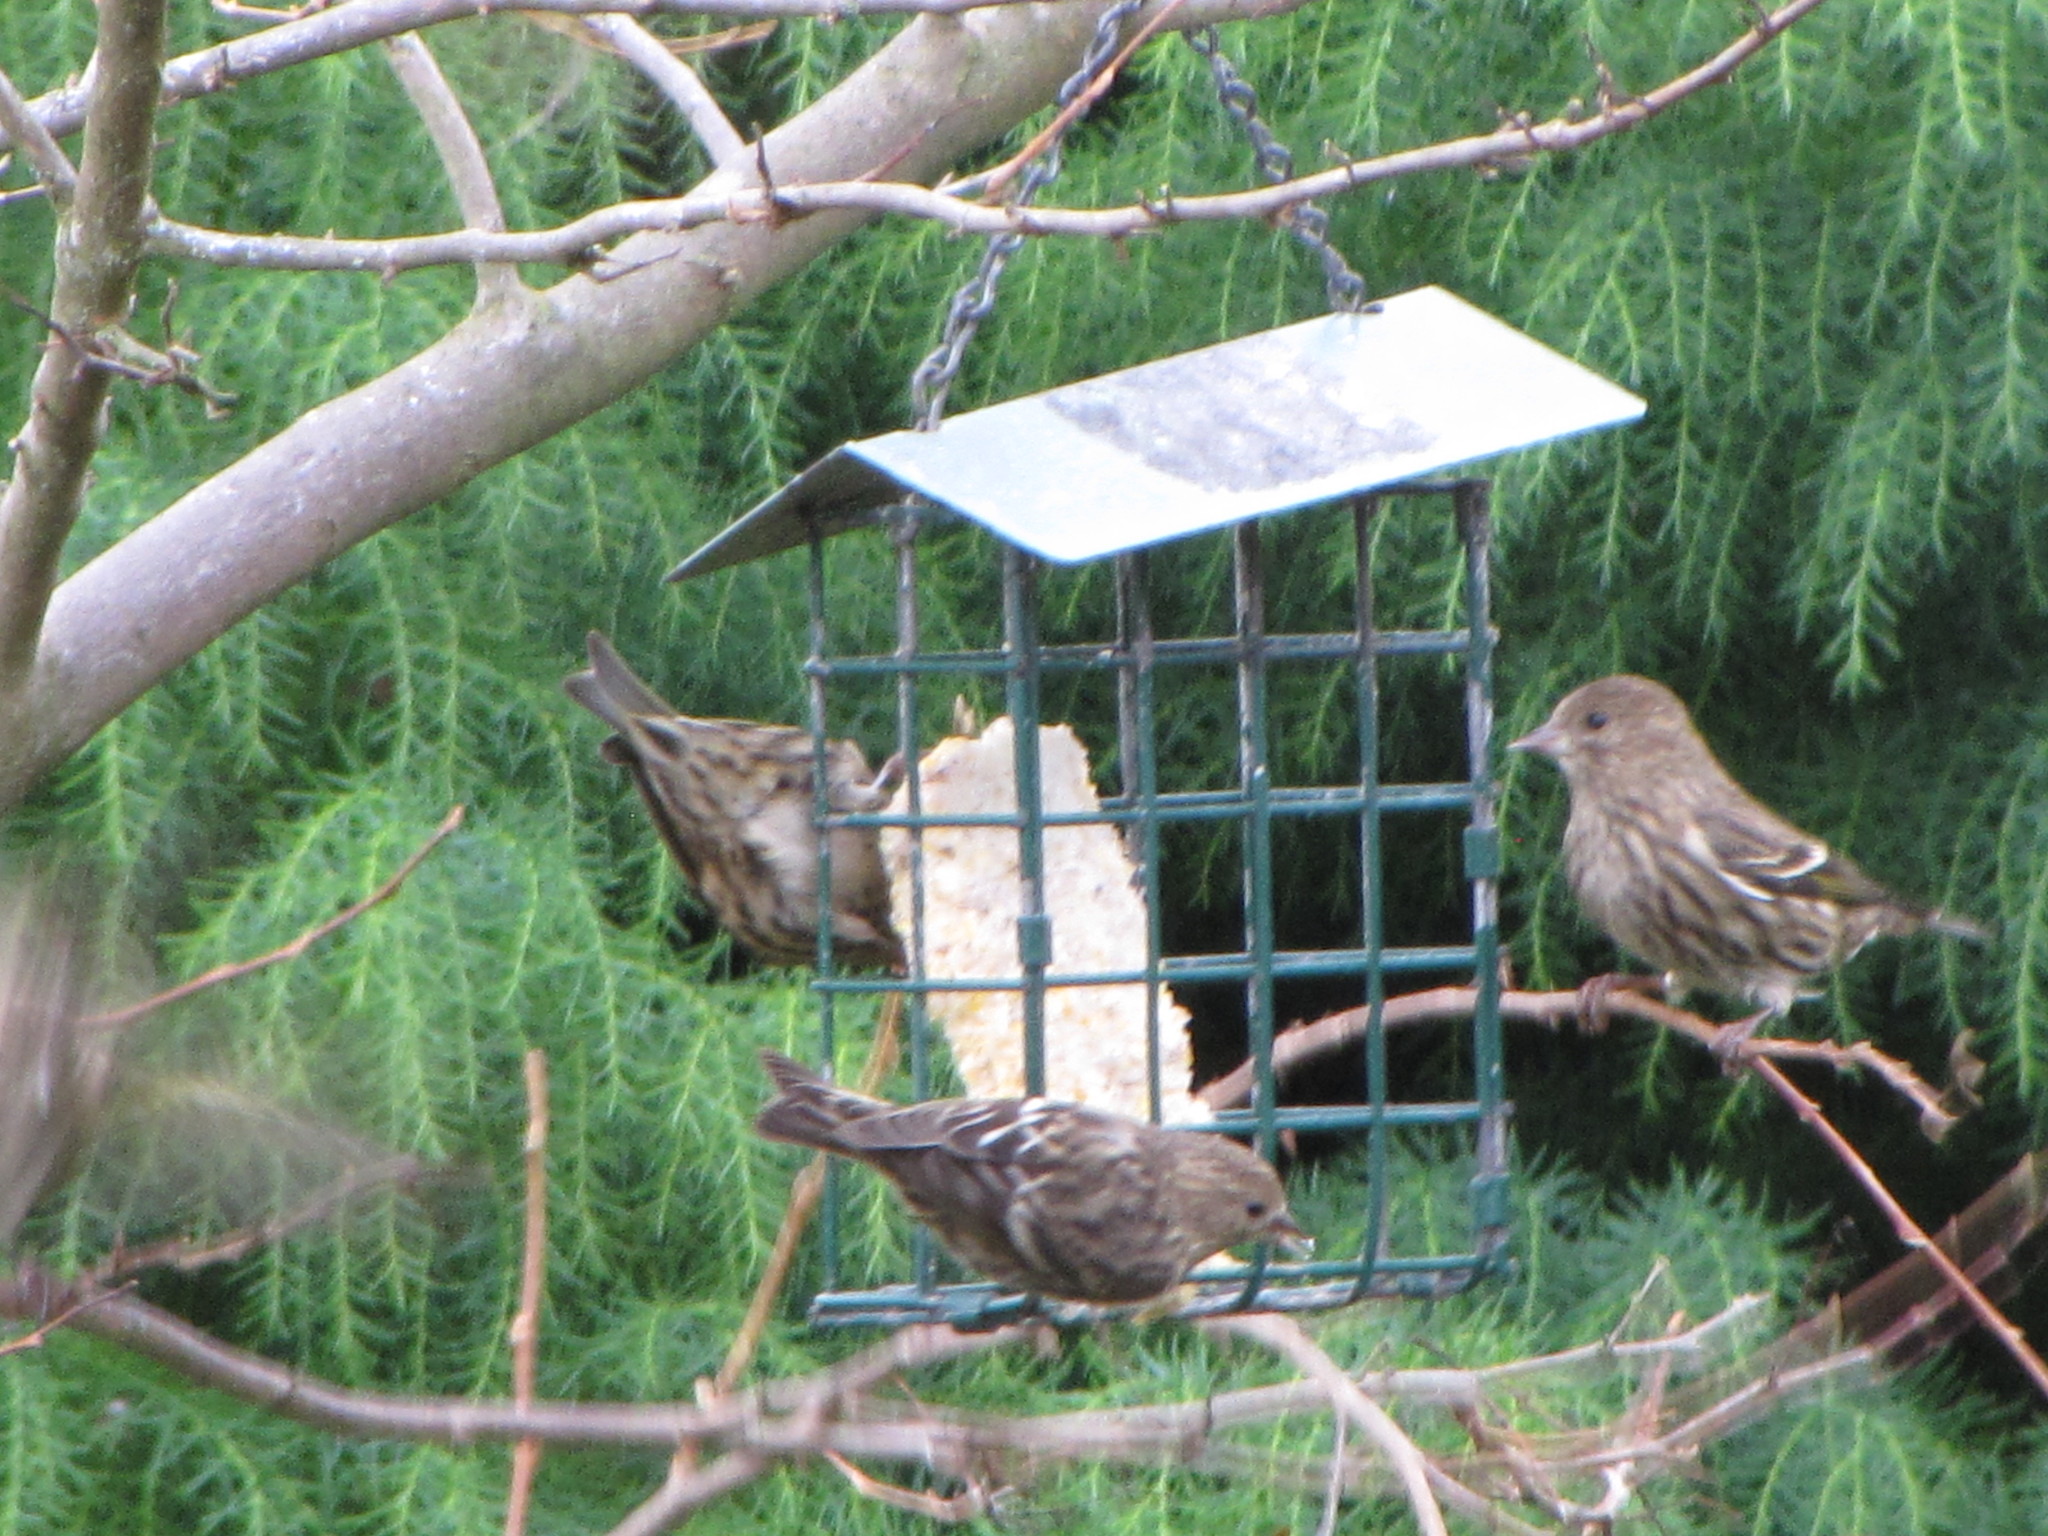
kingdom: Animalia
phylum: Chordata
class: Aves
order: Passeriformes
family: Fringillidae
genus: Spinus
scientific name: Spinus pinus
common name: Pine siskin
